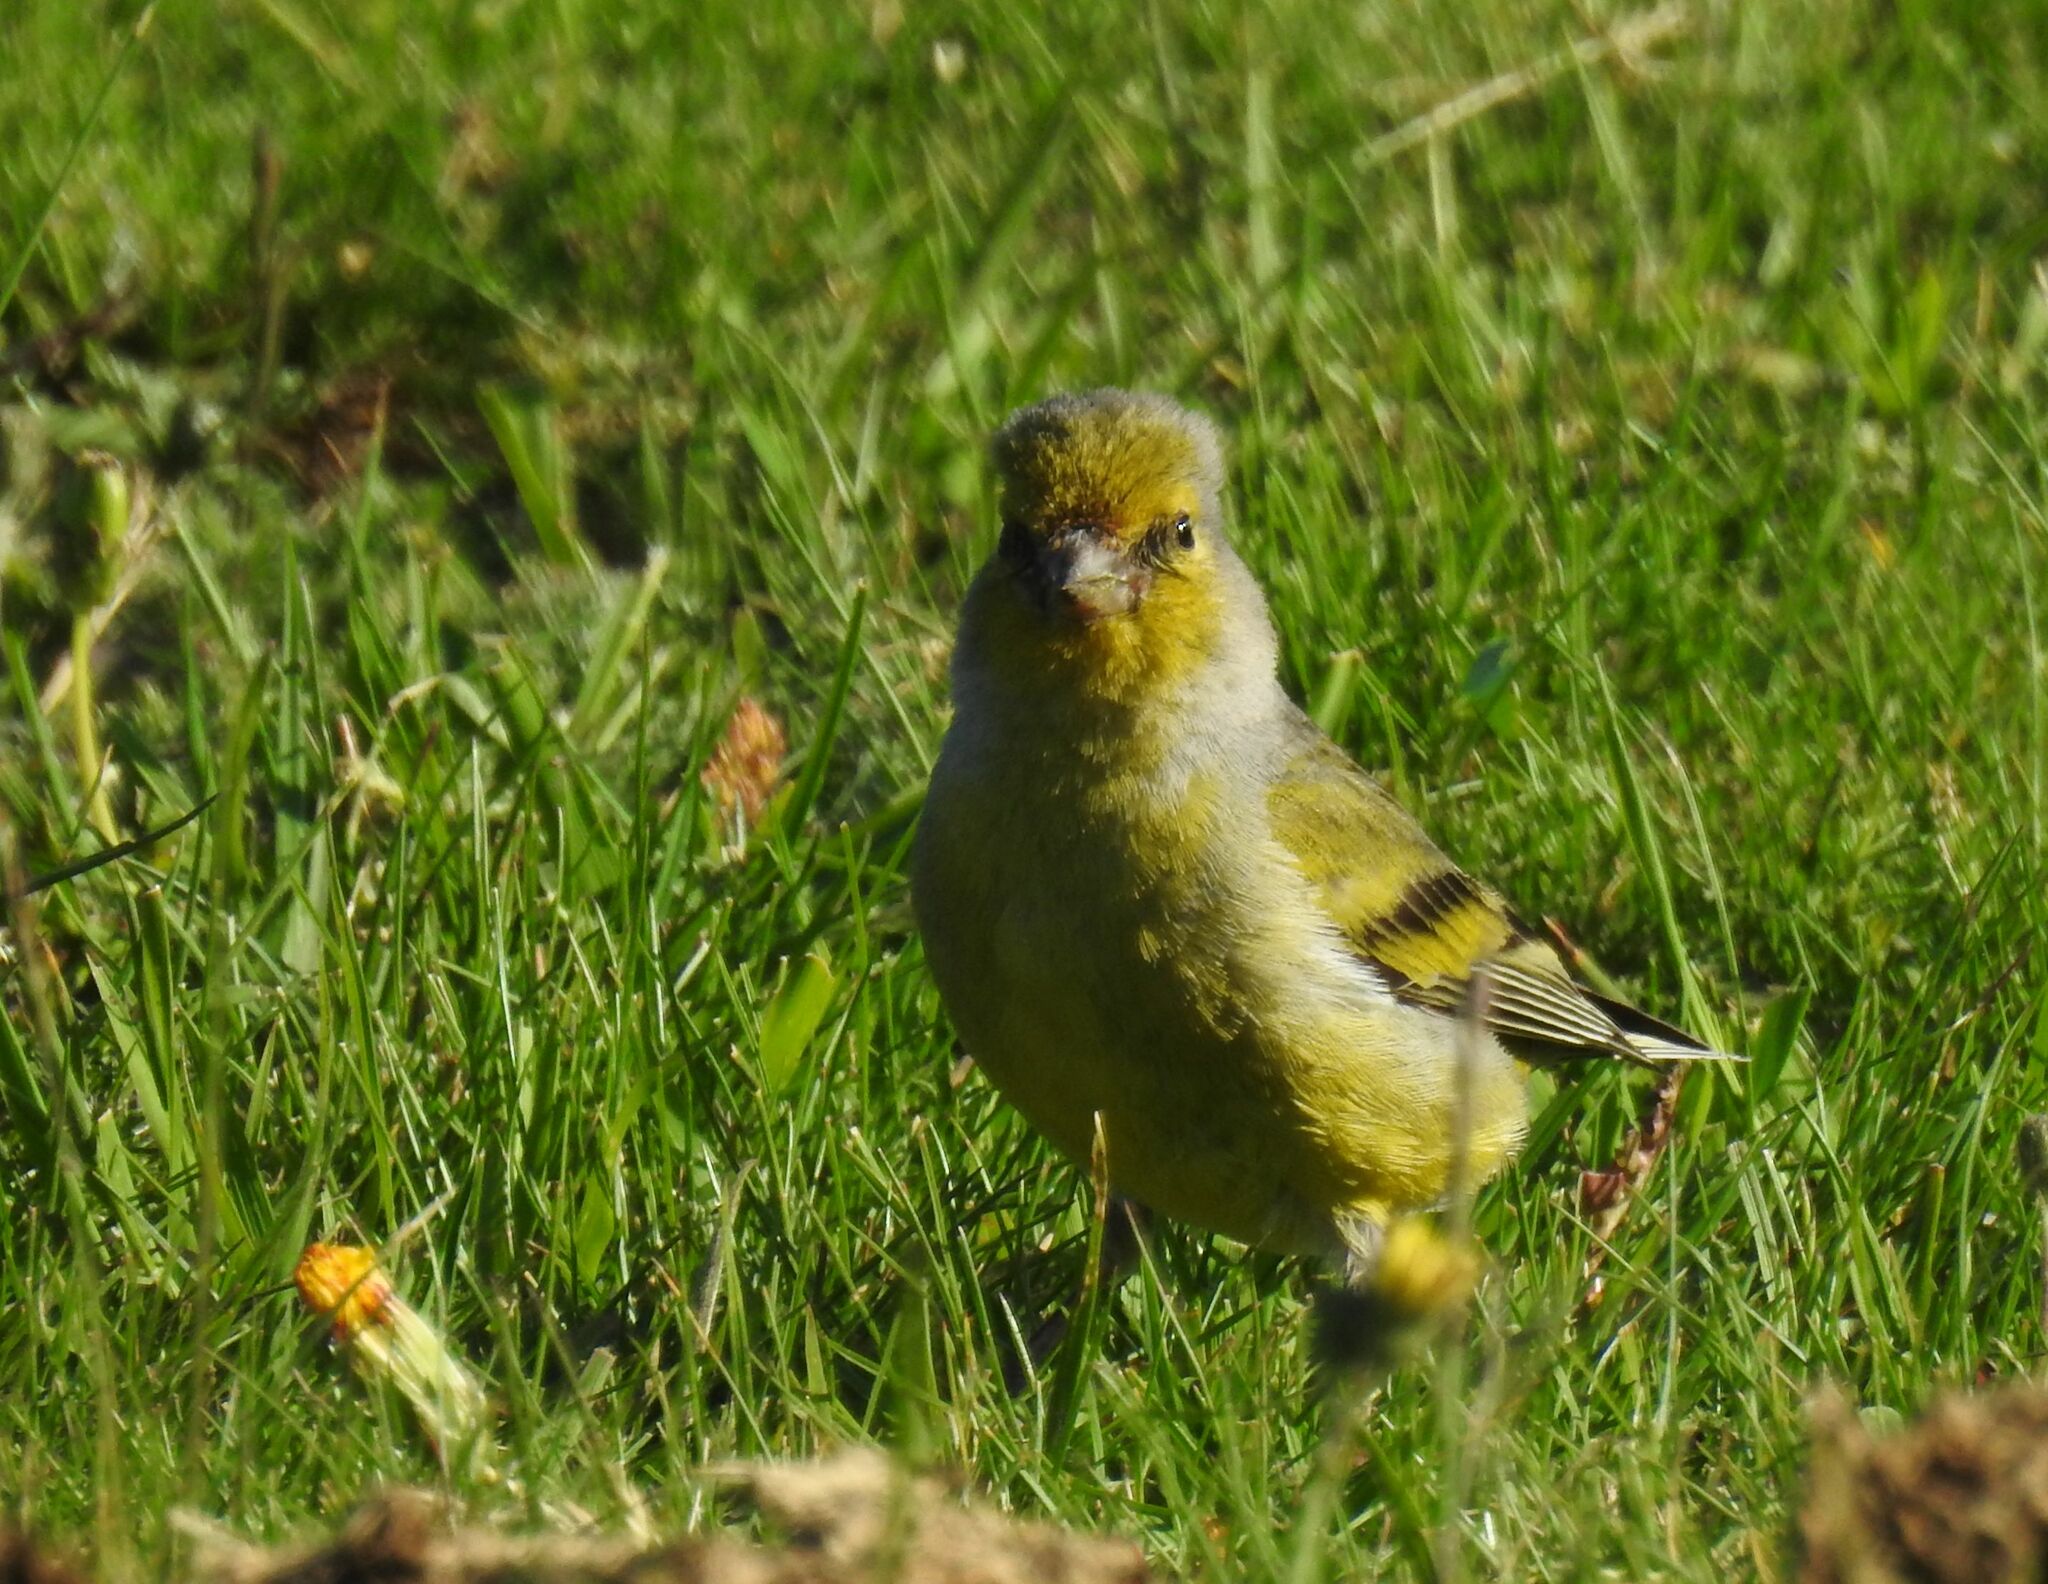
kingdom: Animalia
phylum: Chordata
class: Aves
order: Passeriformes
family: Fringillidae
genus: Carduelis
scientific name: Carduelis citrinella
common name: Citril finch
